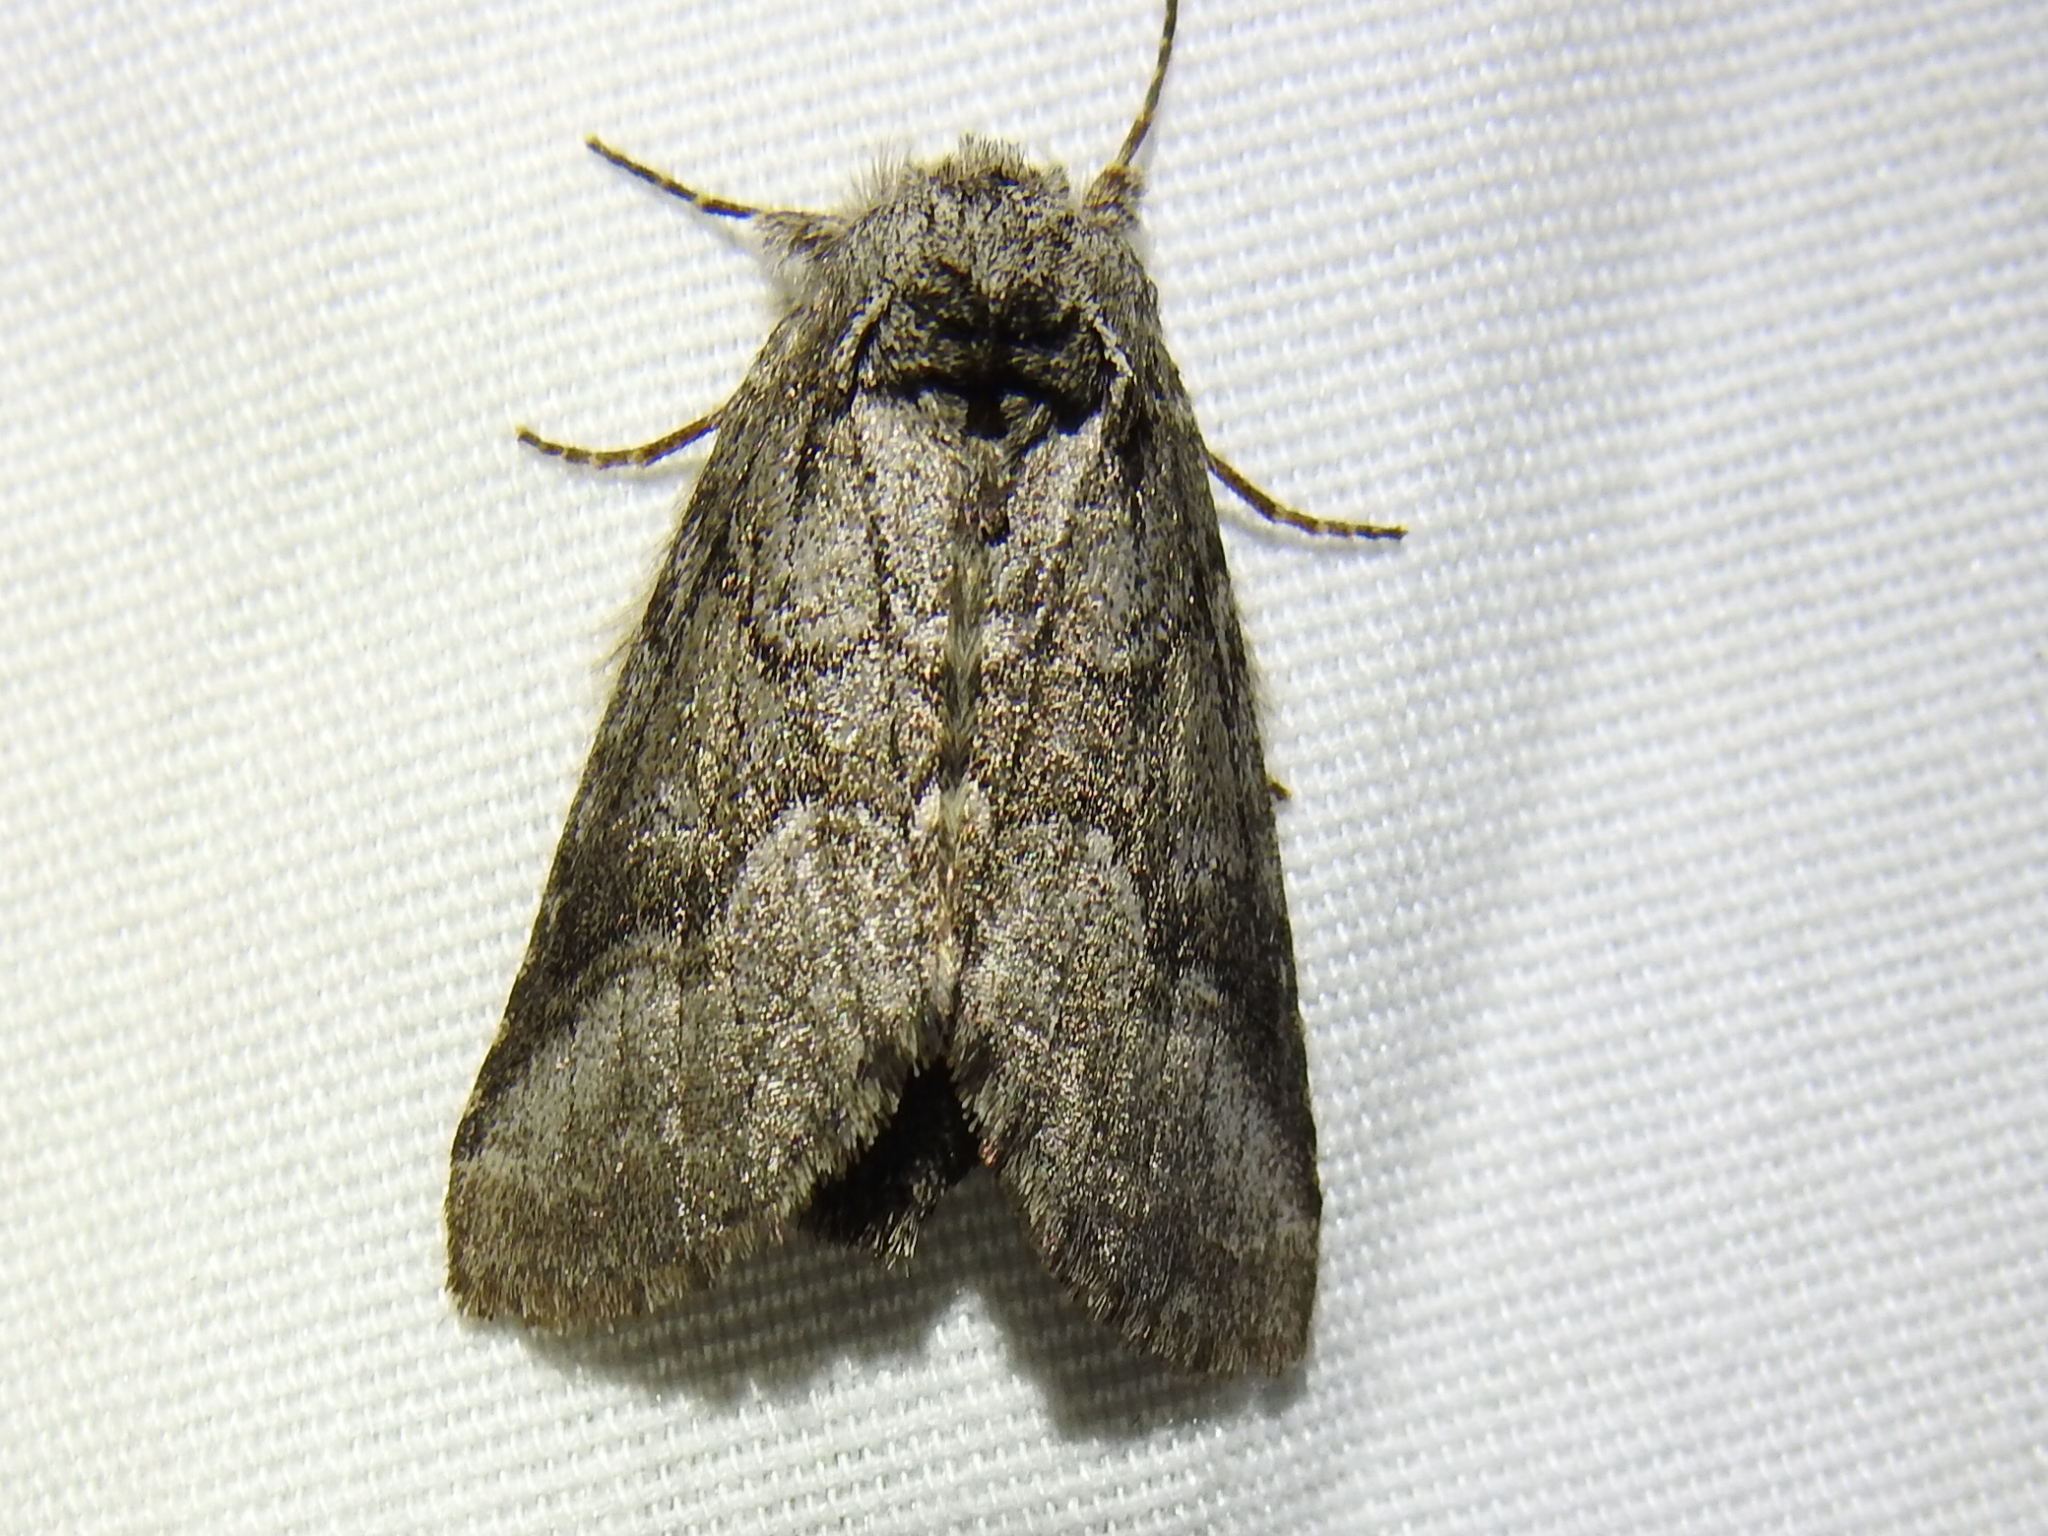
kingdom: Animalia
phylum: Arthropoda
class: Insecta
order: Lepidoptera
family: Notodontidae
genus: Lochmaeus
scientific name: Lochmaeus bilineata
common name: Double-lined prominent
